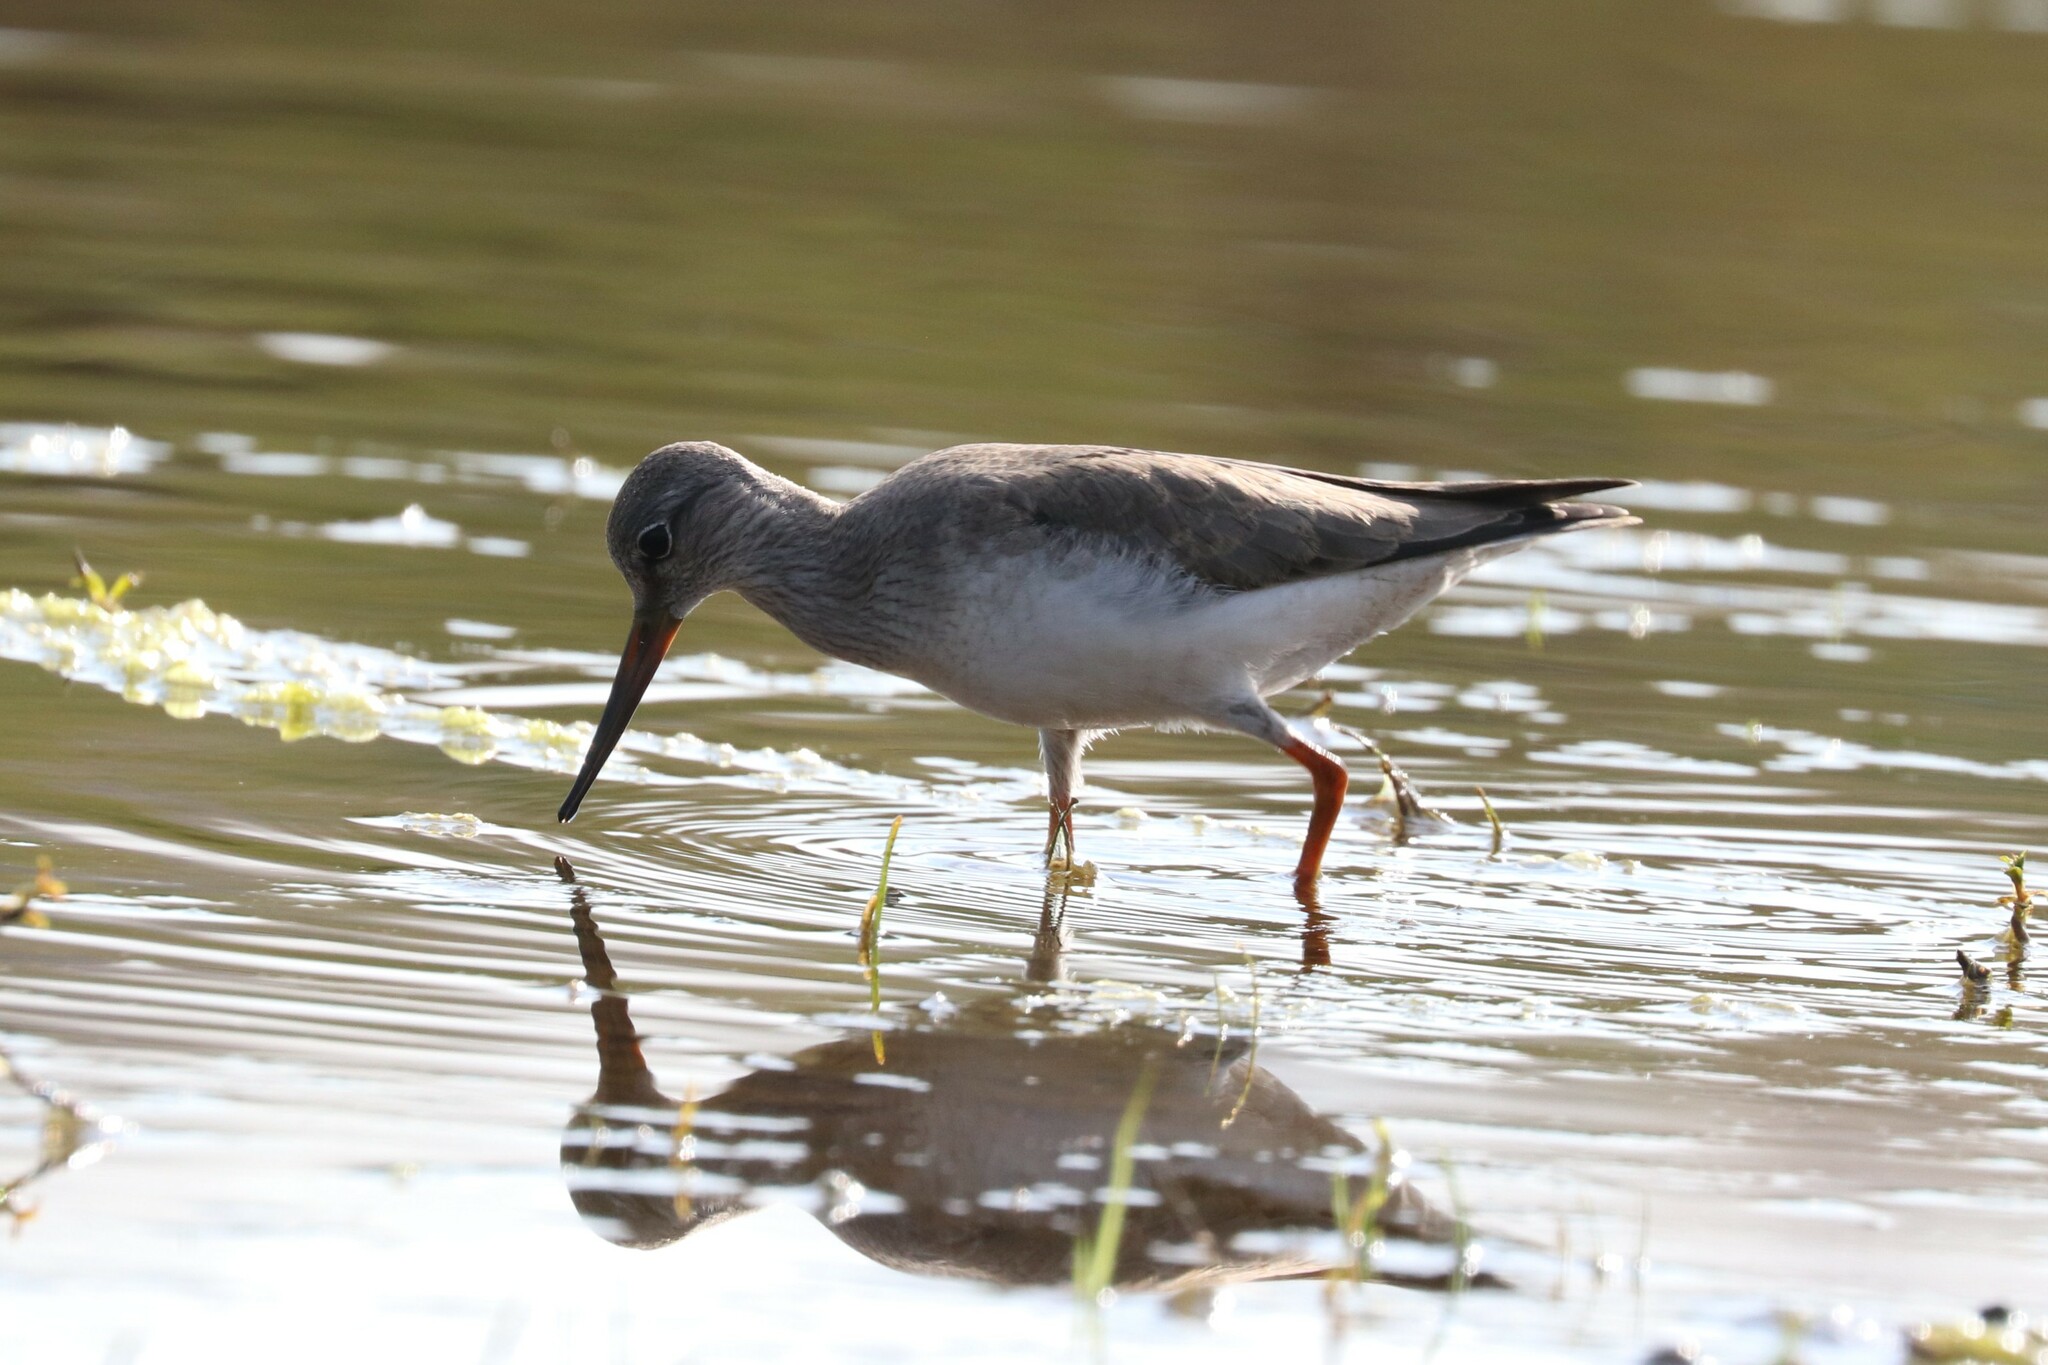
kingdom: Animalia
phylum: Chordata
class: Aves
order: Charadriiformes
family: Scolopacidae
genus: Xenus
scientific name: Xenus cinereus
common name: Terek sandpiper
